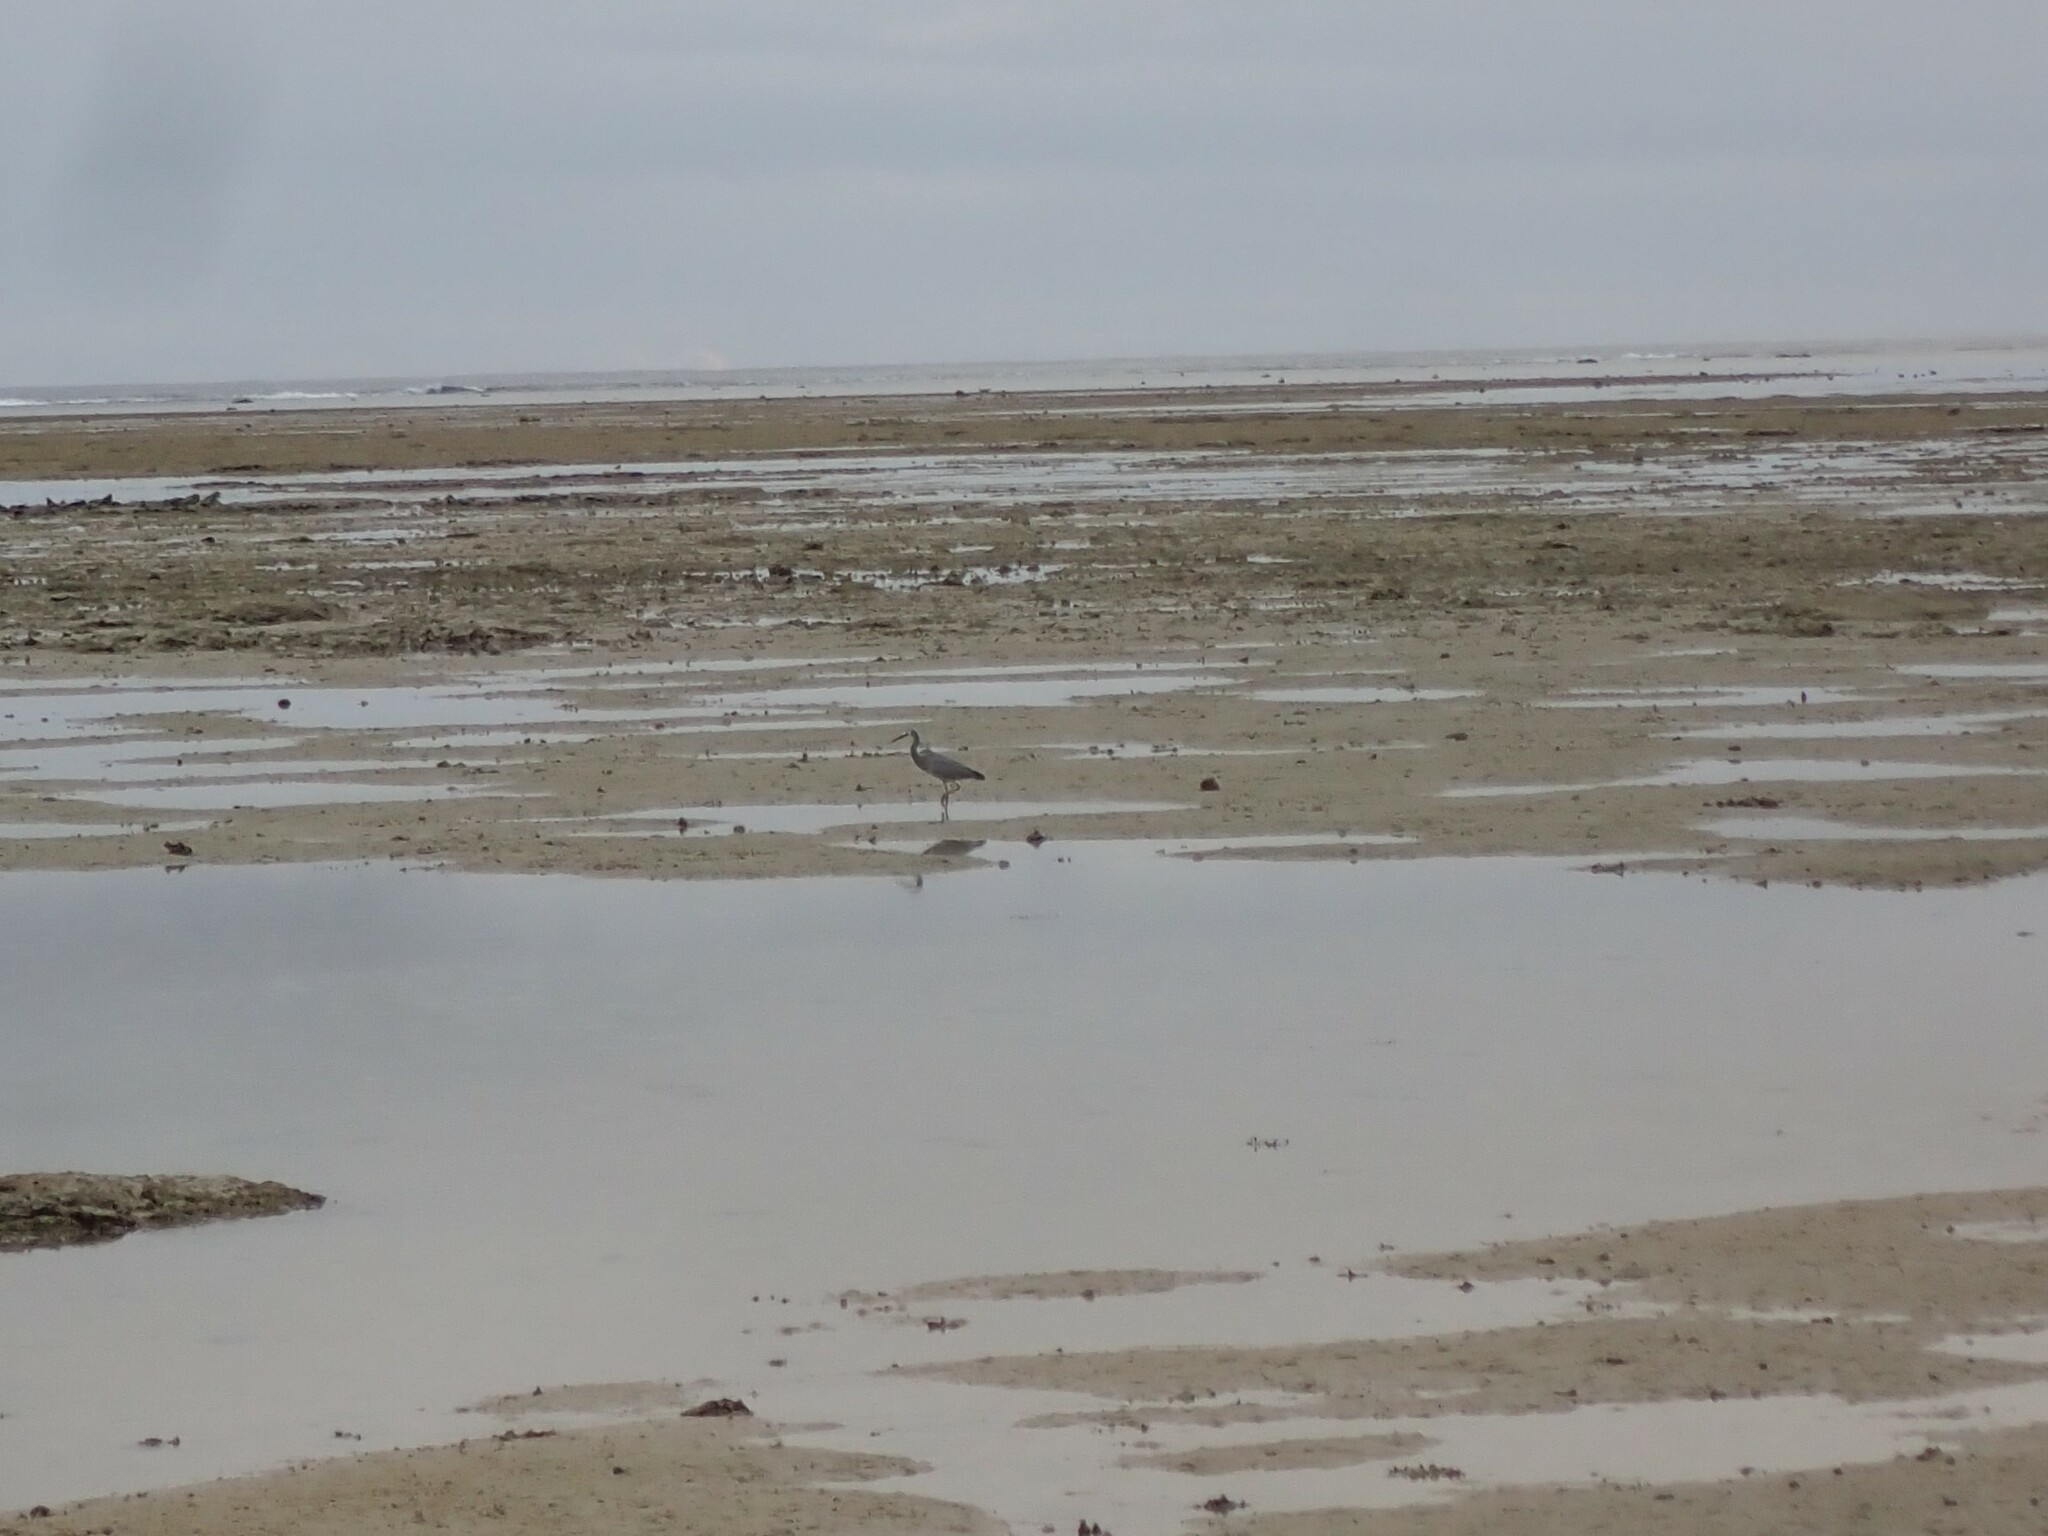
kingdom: Animalia
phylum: Chordata
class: Aves
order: Pelecaniformes
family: Ardeidae
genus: Egretta
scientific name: Egretta novaehollandiae
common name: White-faced heron
